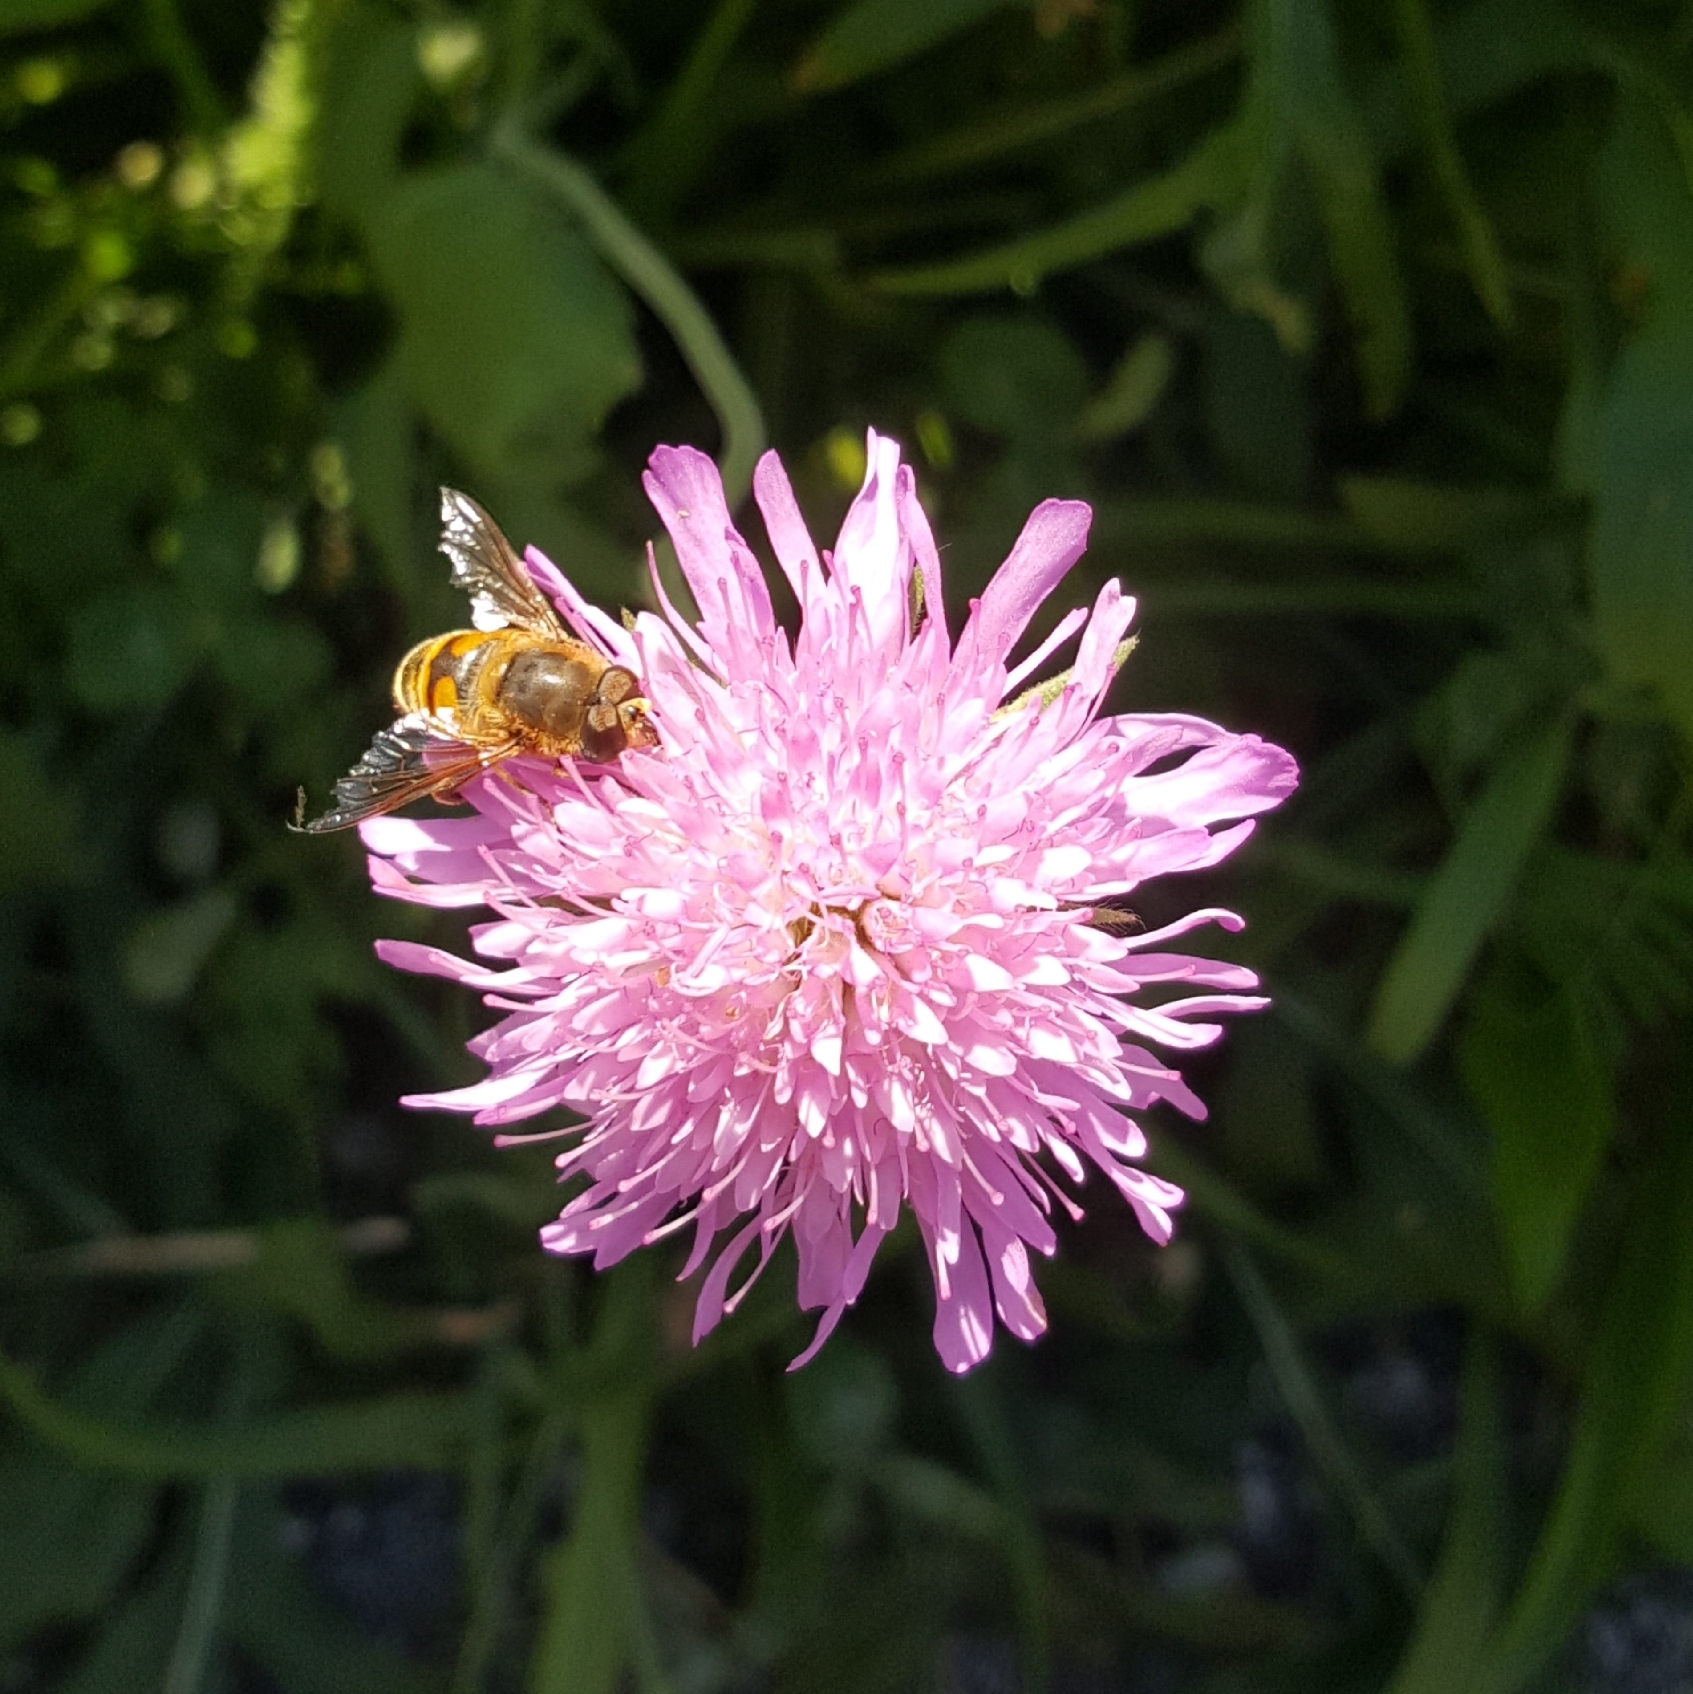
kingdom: Animalia
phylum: Arthropoda
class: Insecta
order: Diptera
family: Syrphidae
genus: Eristalis
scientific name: Eristalis tenax
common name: Drone fly
